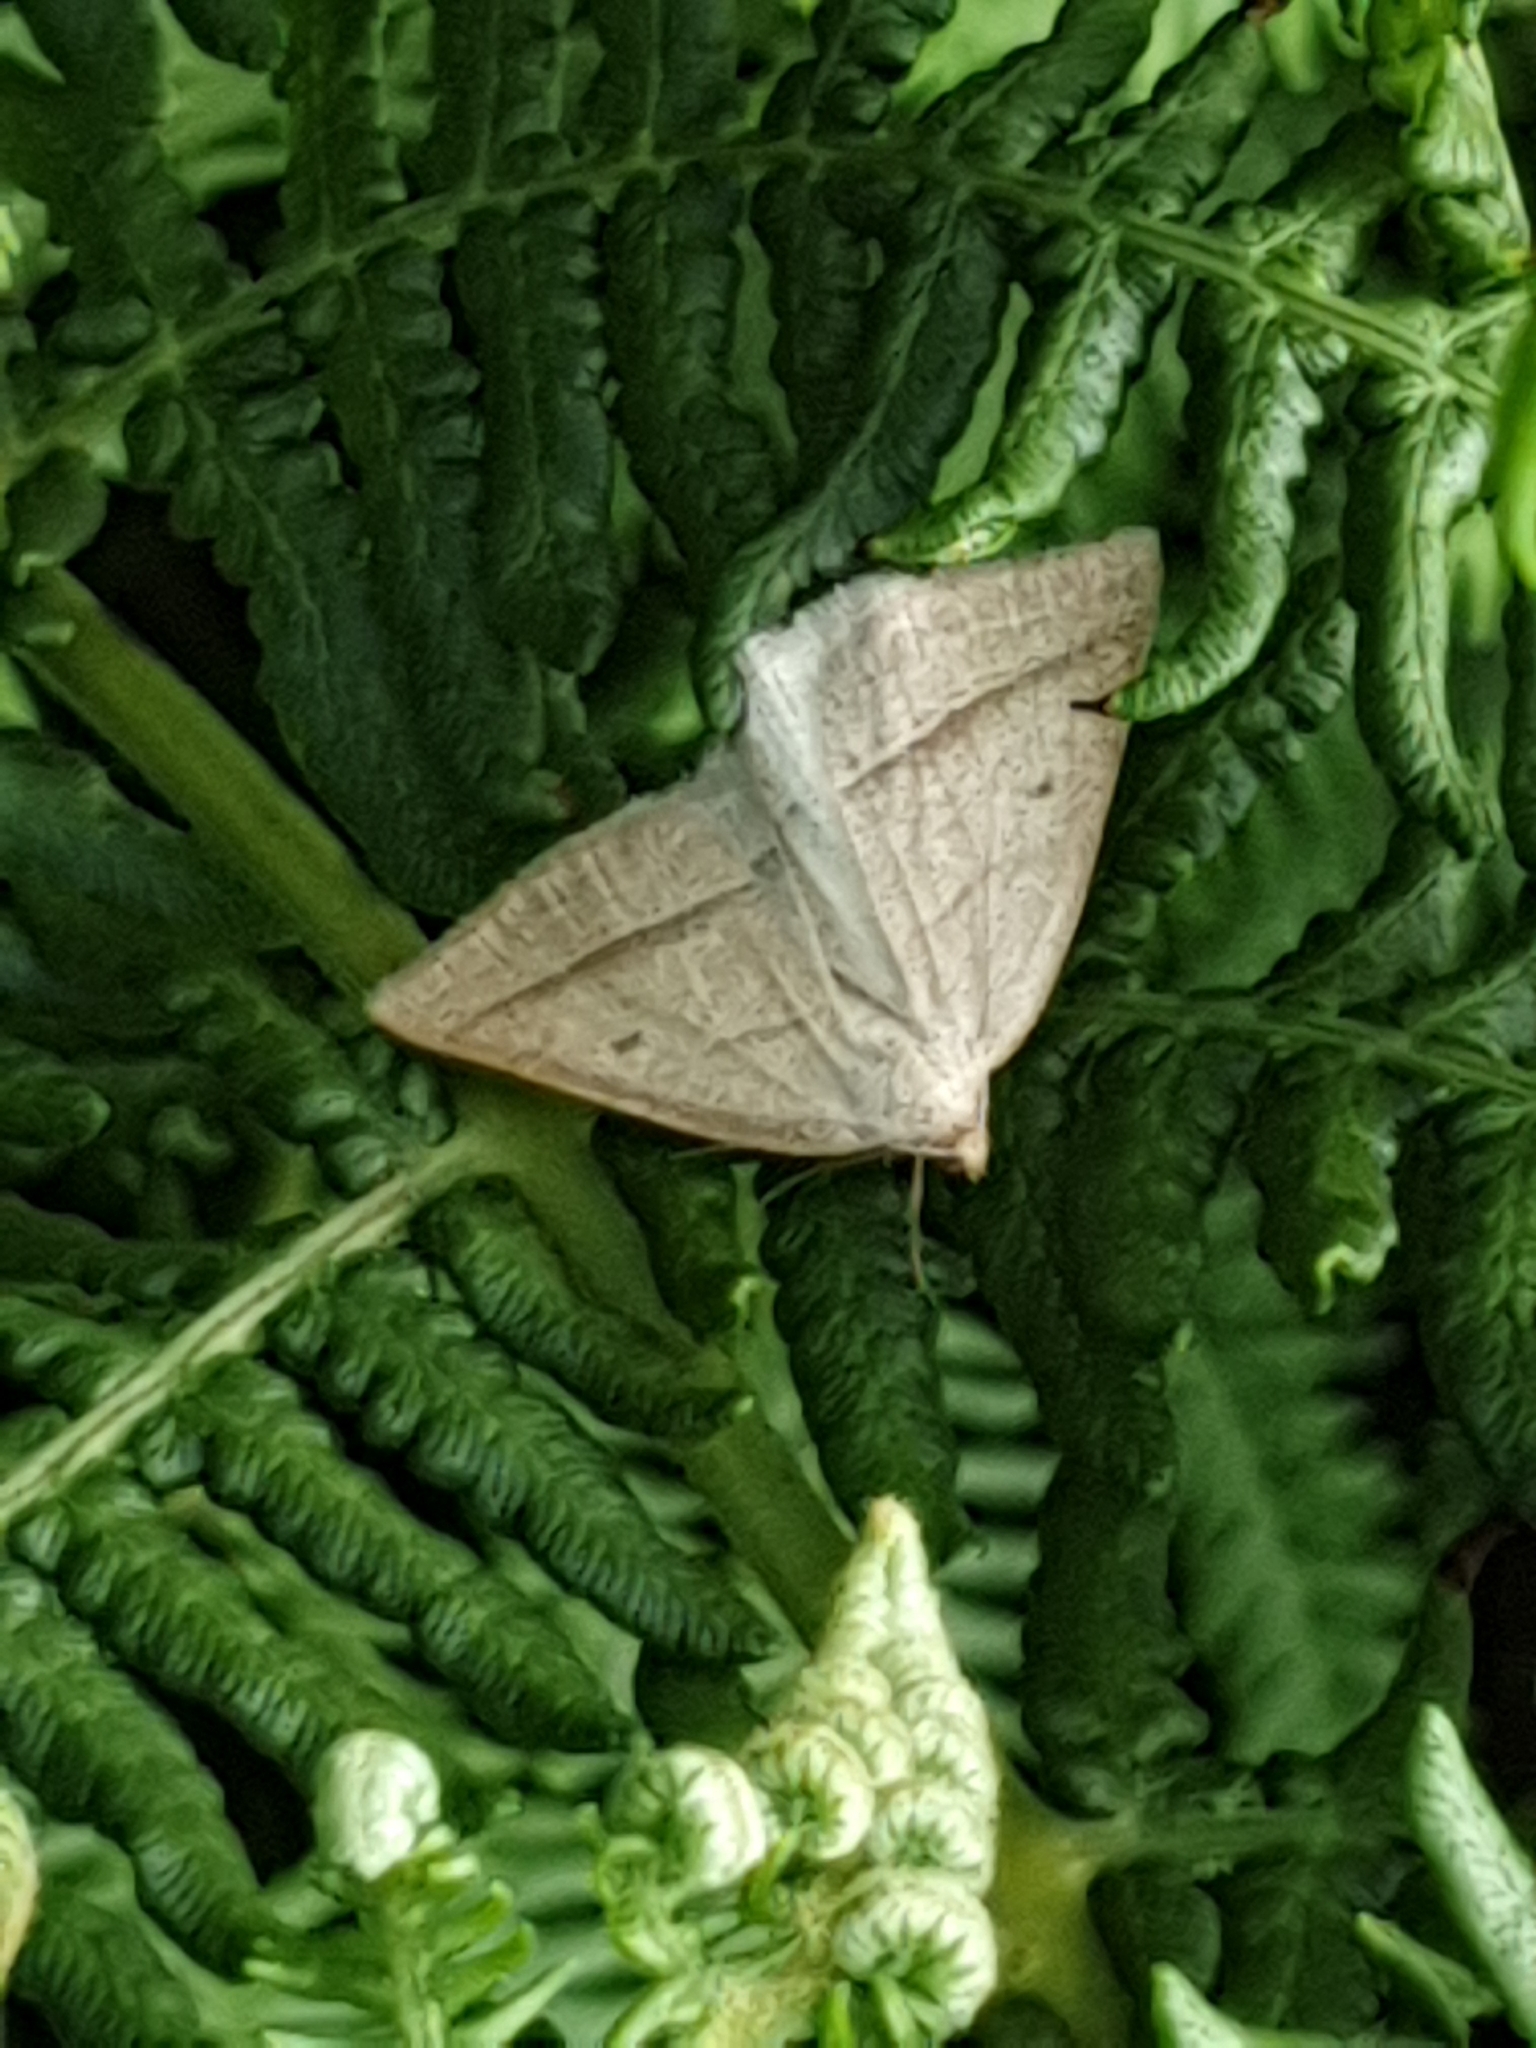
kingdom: Animalia
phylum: Arthropoda
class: Insecta
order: Lepidoptera
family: Pterophoridae
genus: Pterophorus
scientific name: Pterophorus Petrophora chlorosata
